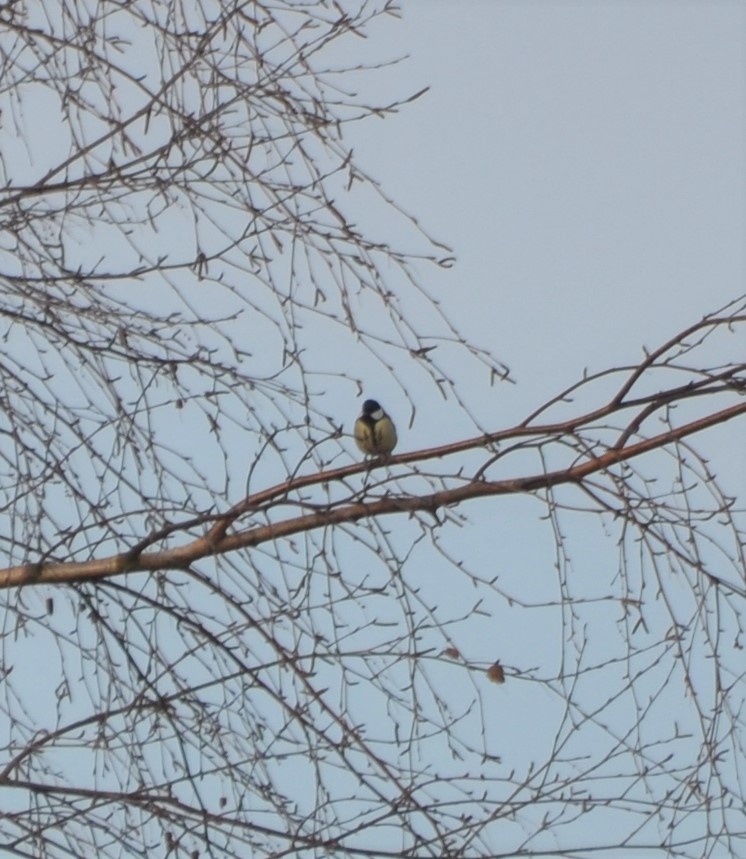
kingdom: Animalia
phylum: Chordata
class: Aves
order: Passeriformes
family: Paridae
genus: Parus
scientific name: Parus major
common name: Great tit
